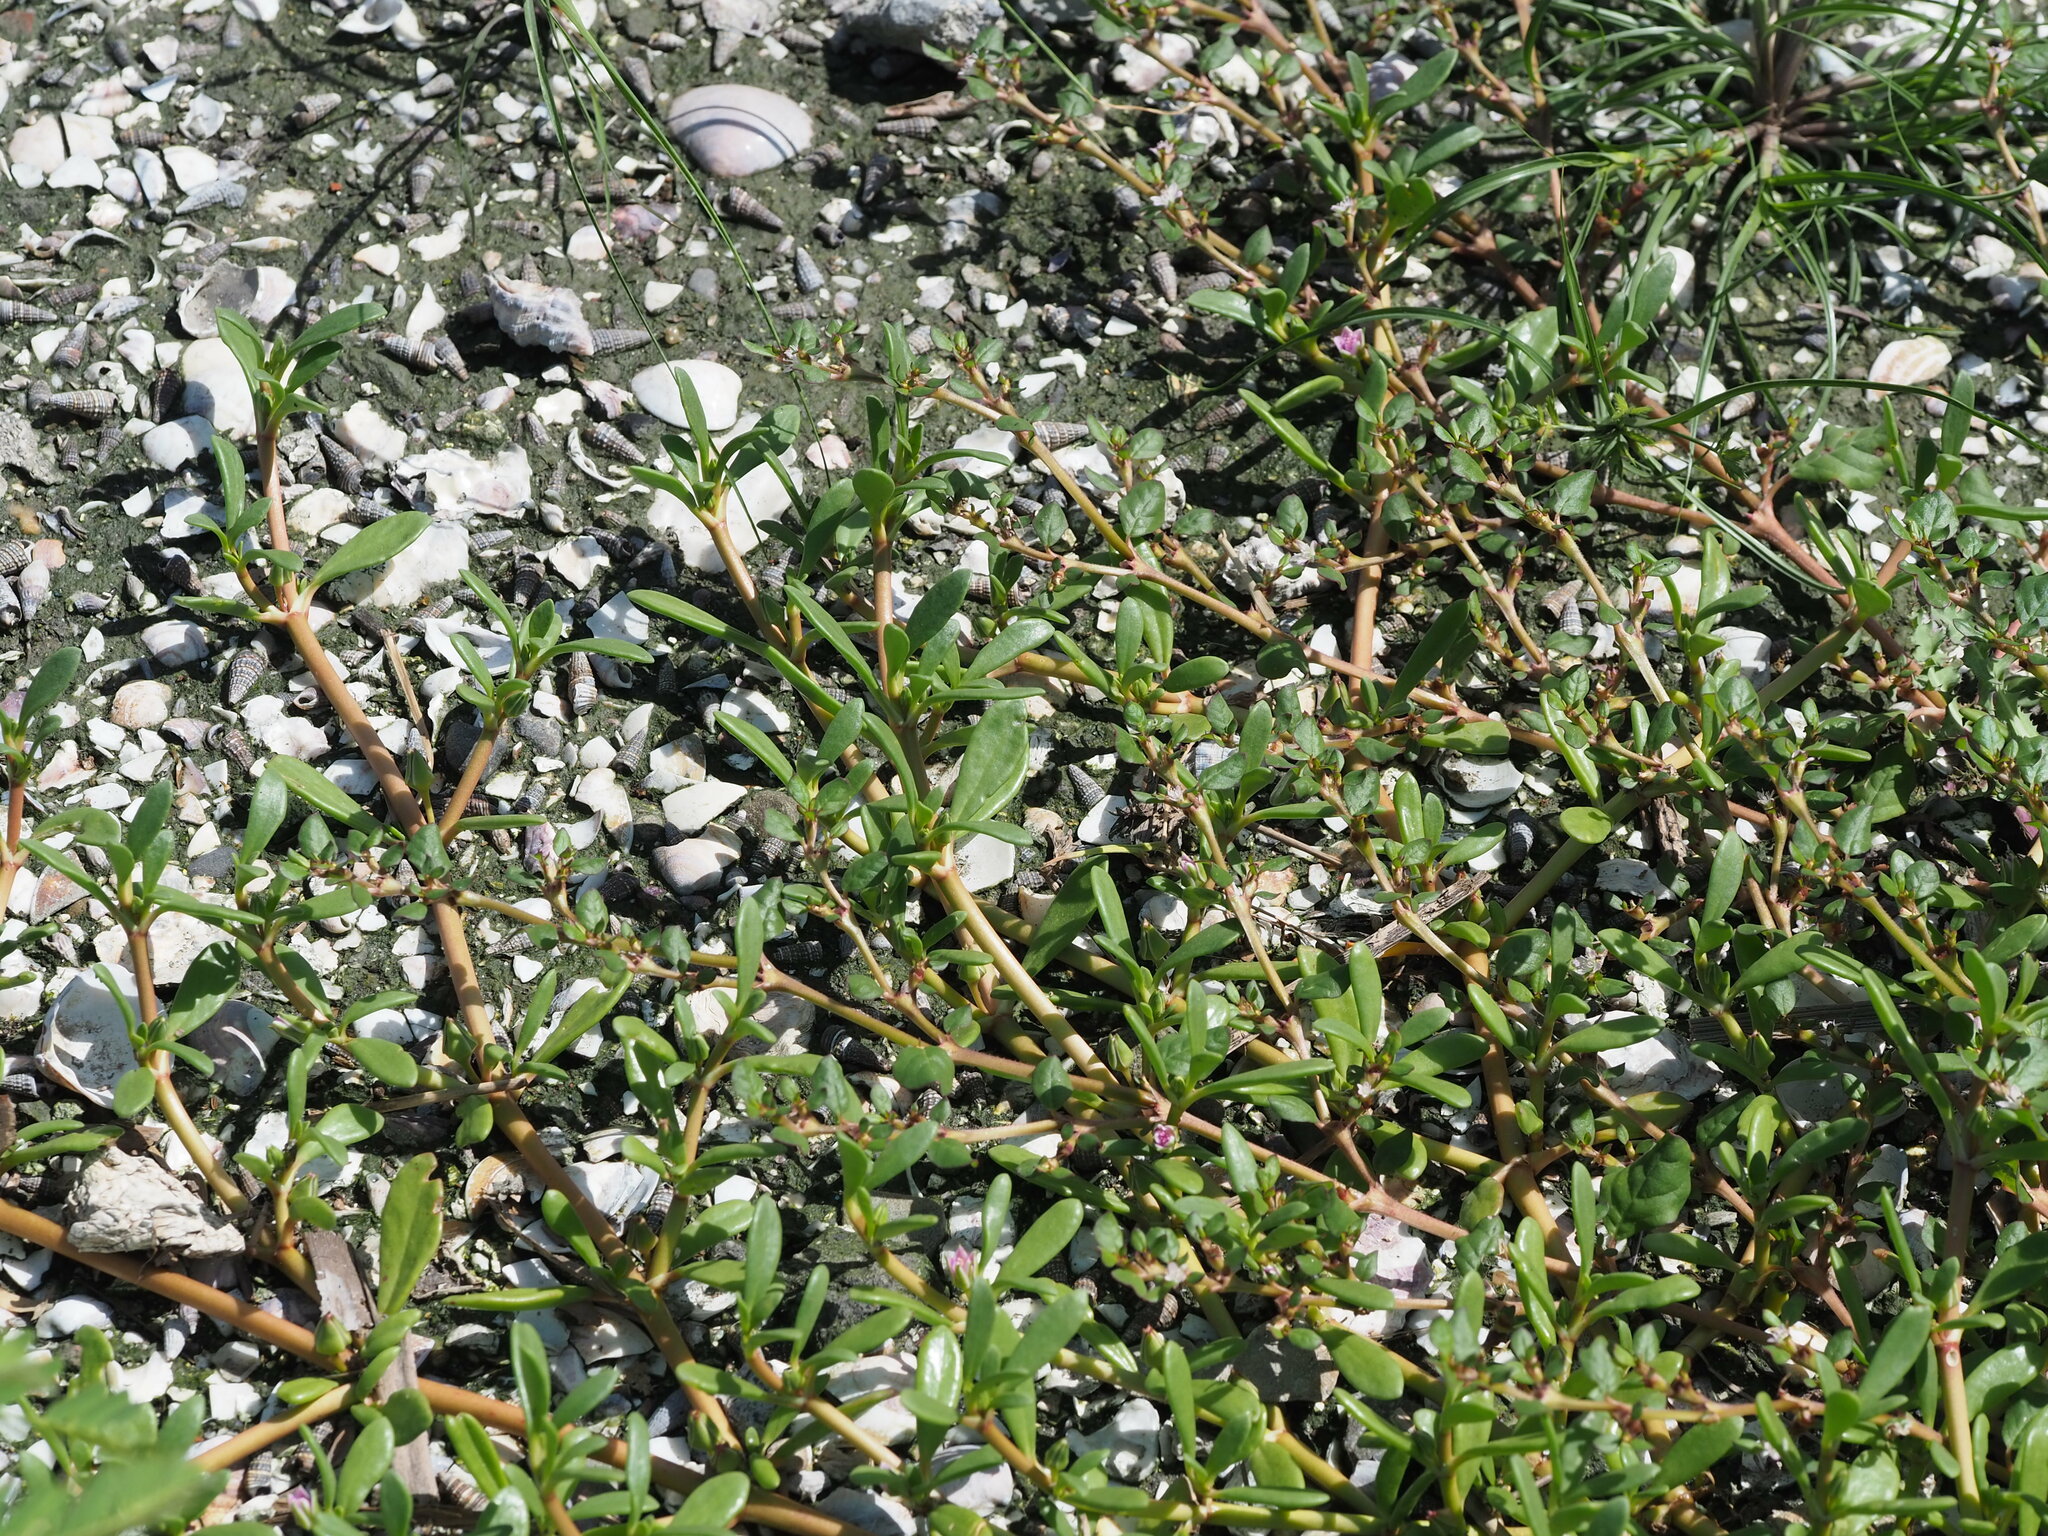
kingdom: Plantae
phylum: Tracheophyta
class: Magnoliopsida
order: Caryophyllales
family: Aizoaceae
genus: Sesuvium
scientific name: Sesuvium portulacastrum
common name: Sea-purslane
